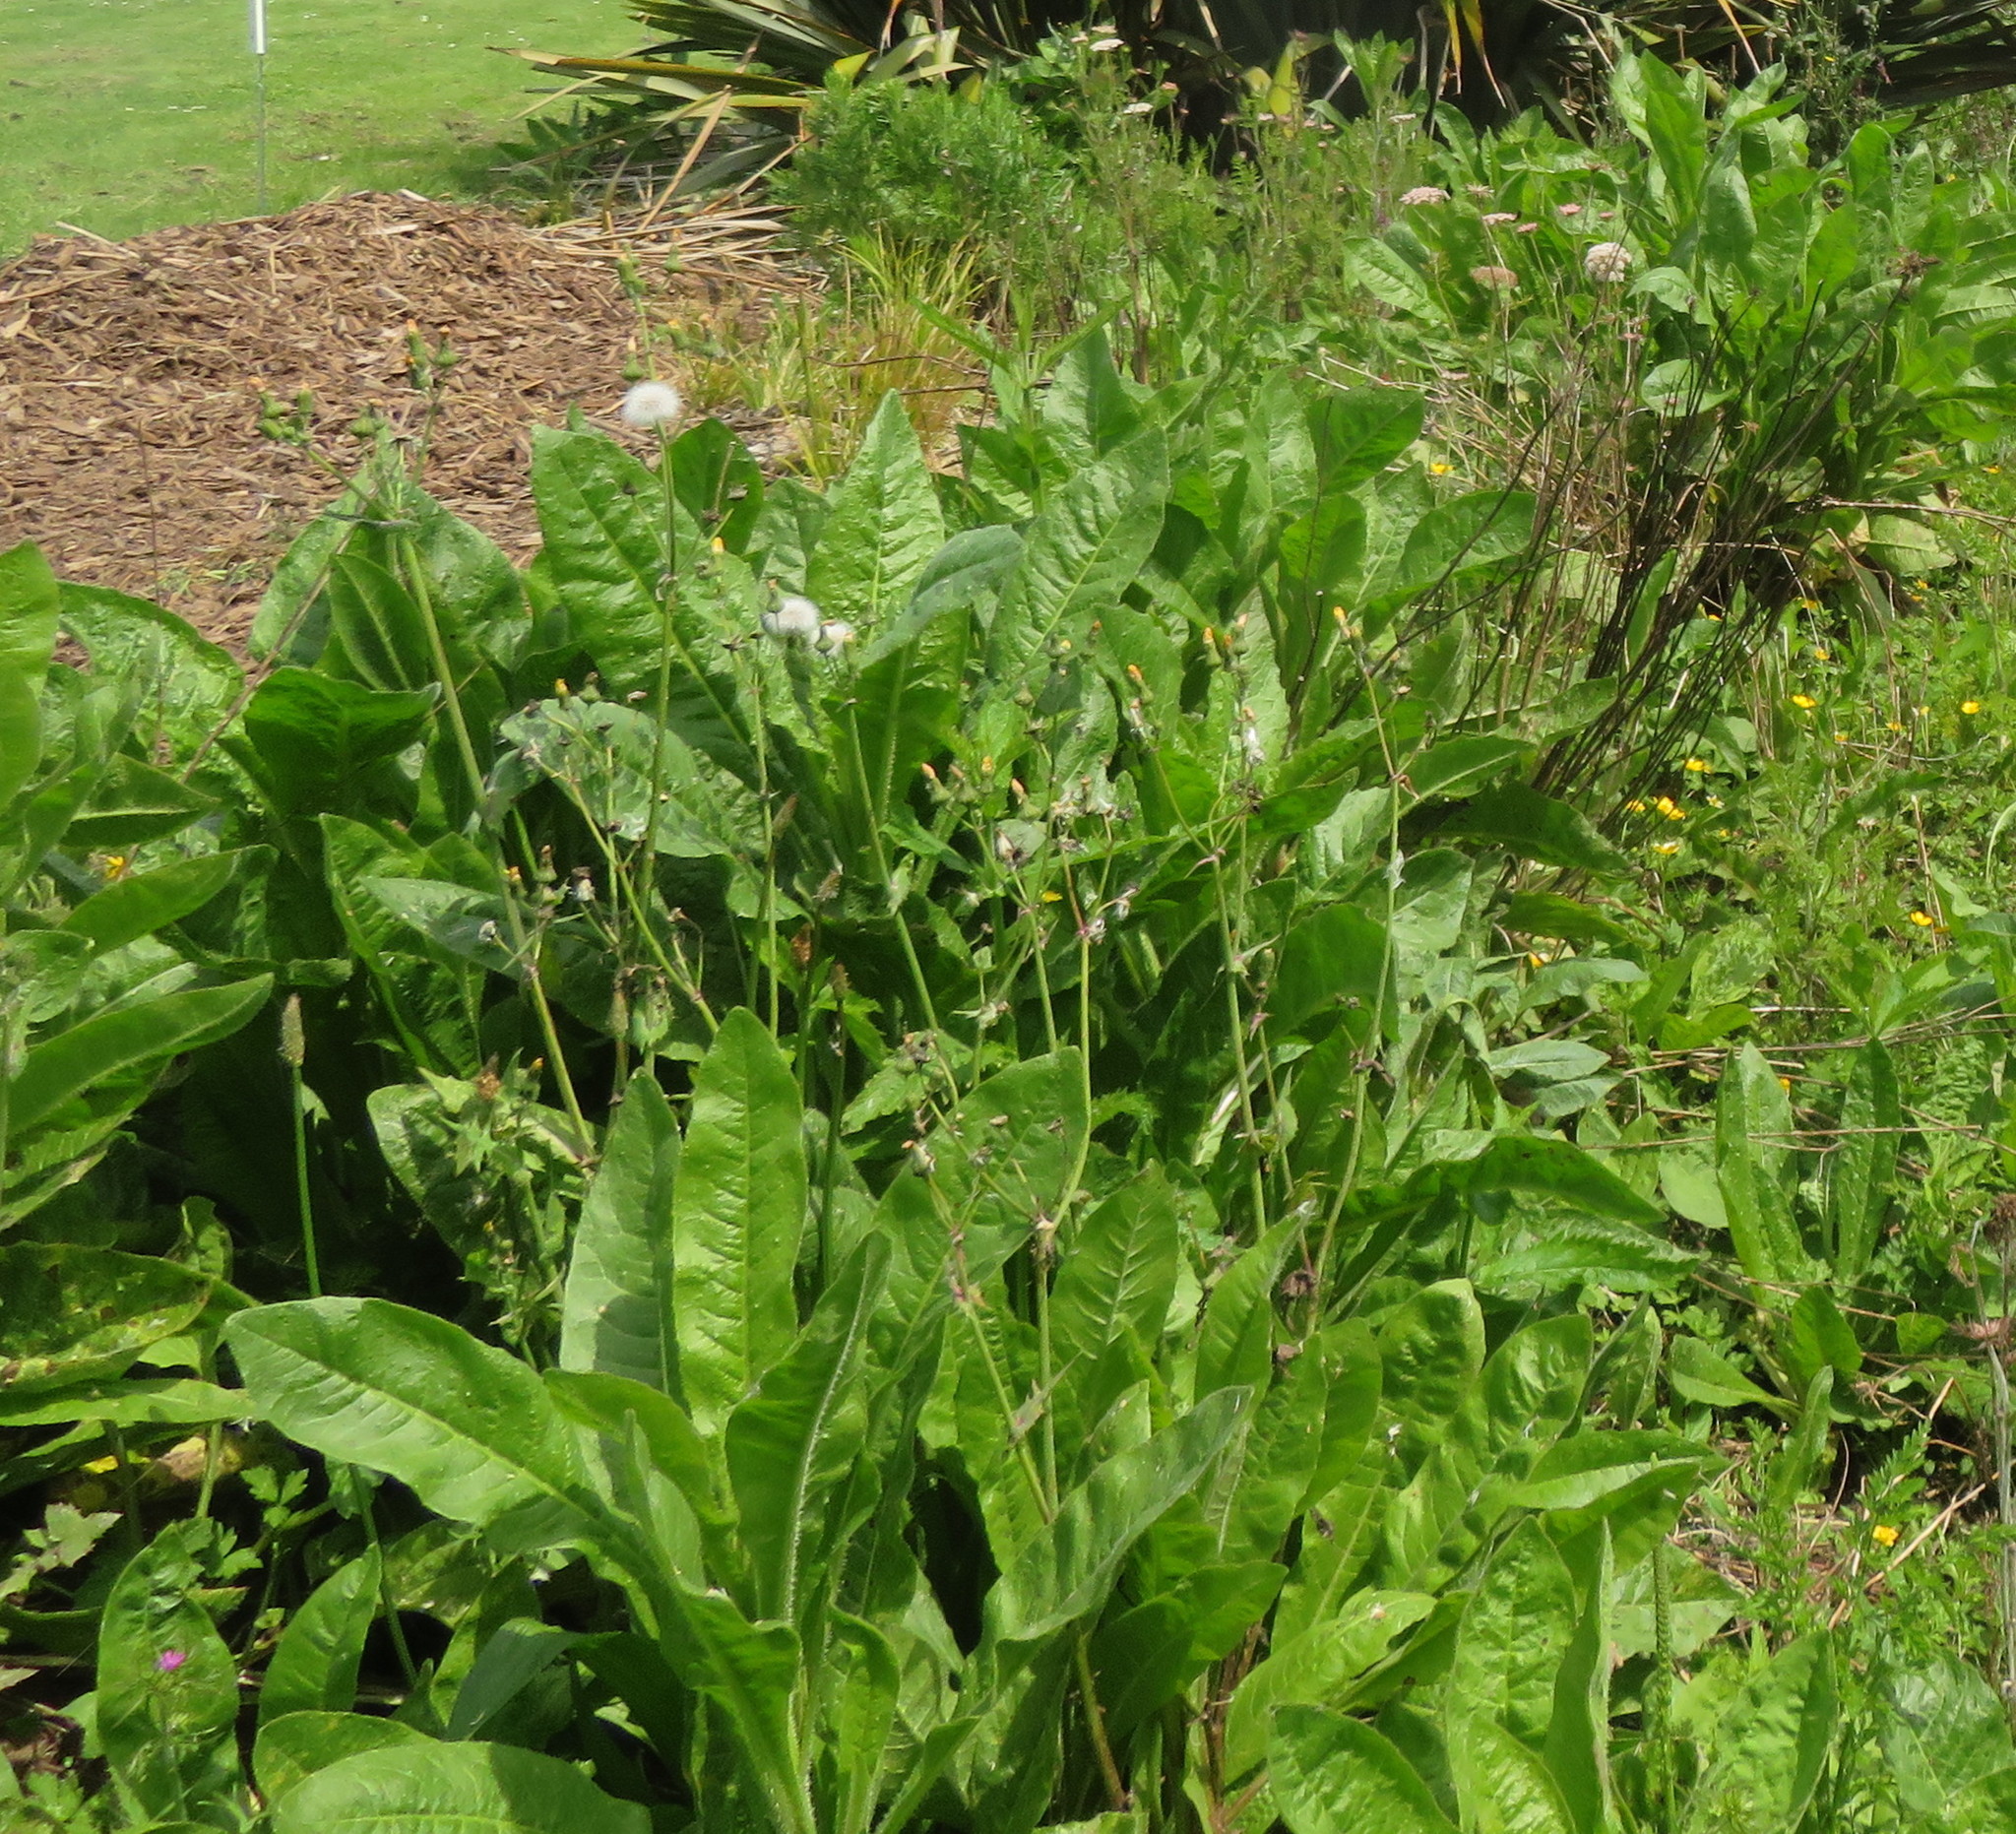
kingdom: Plantae
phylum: Tracheophyta
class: Magnoliopsida
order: Asterales
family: Asteraceae
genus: Sonchus
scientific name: Sonchus oleraceus
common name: Common sowthistle
